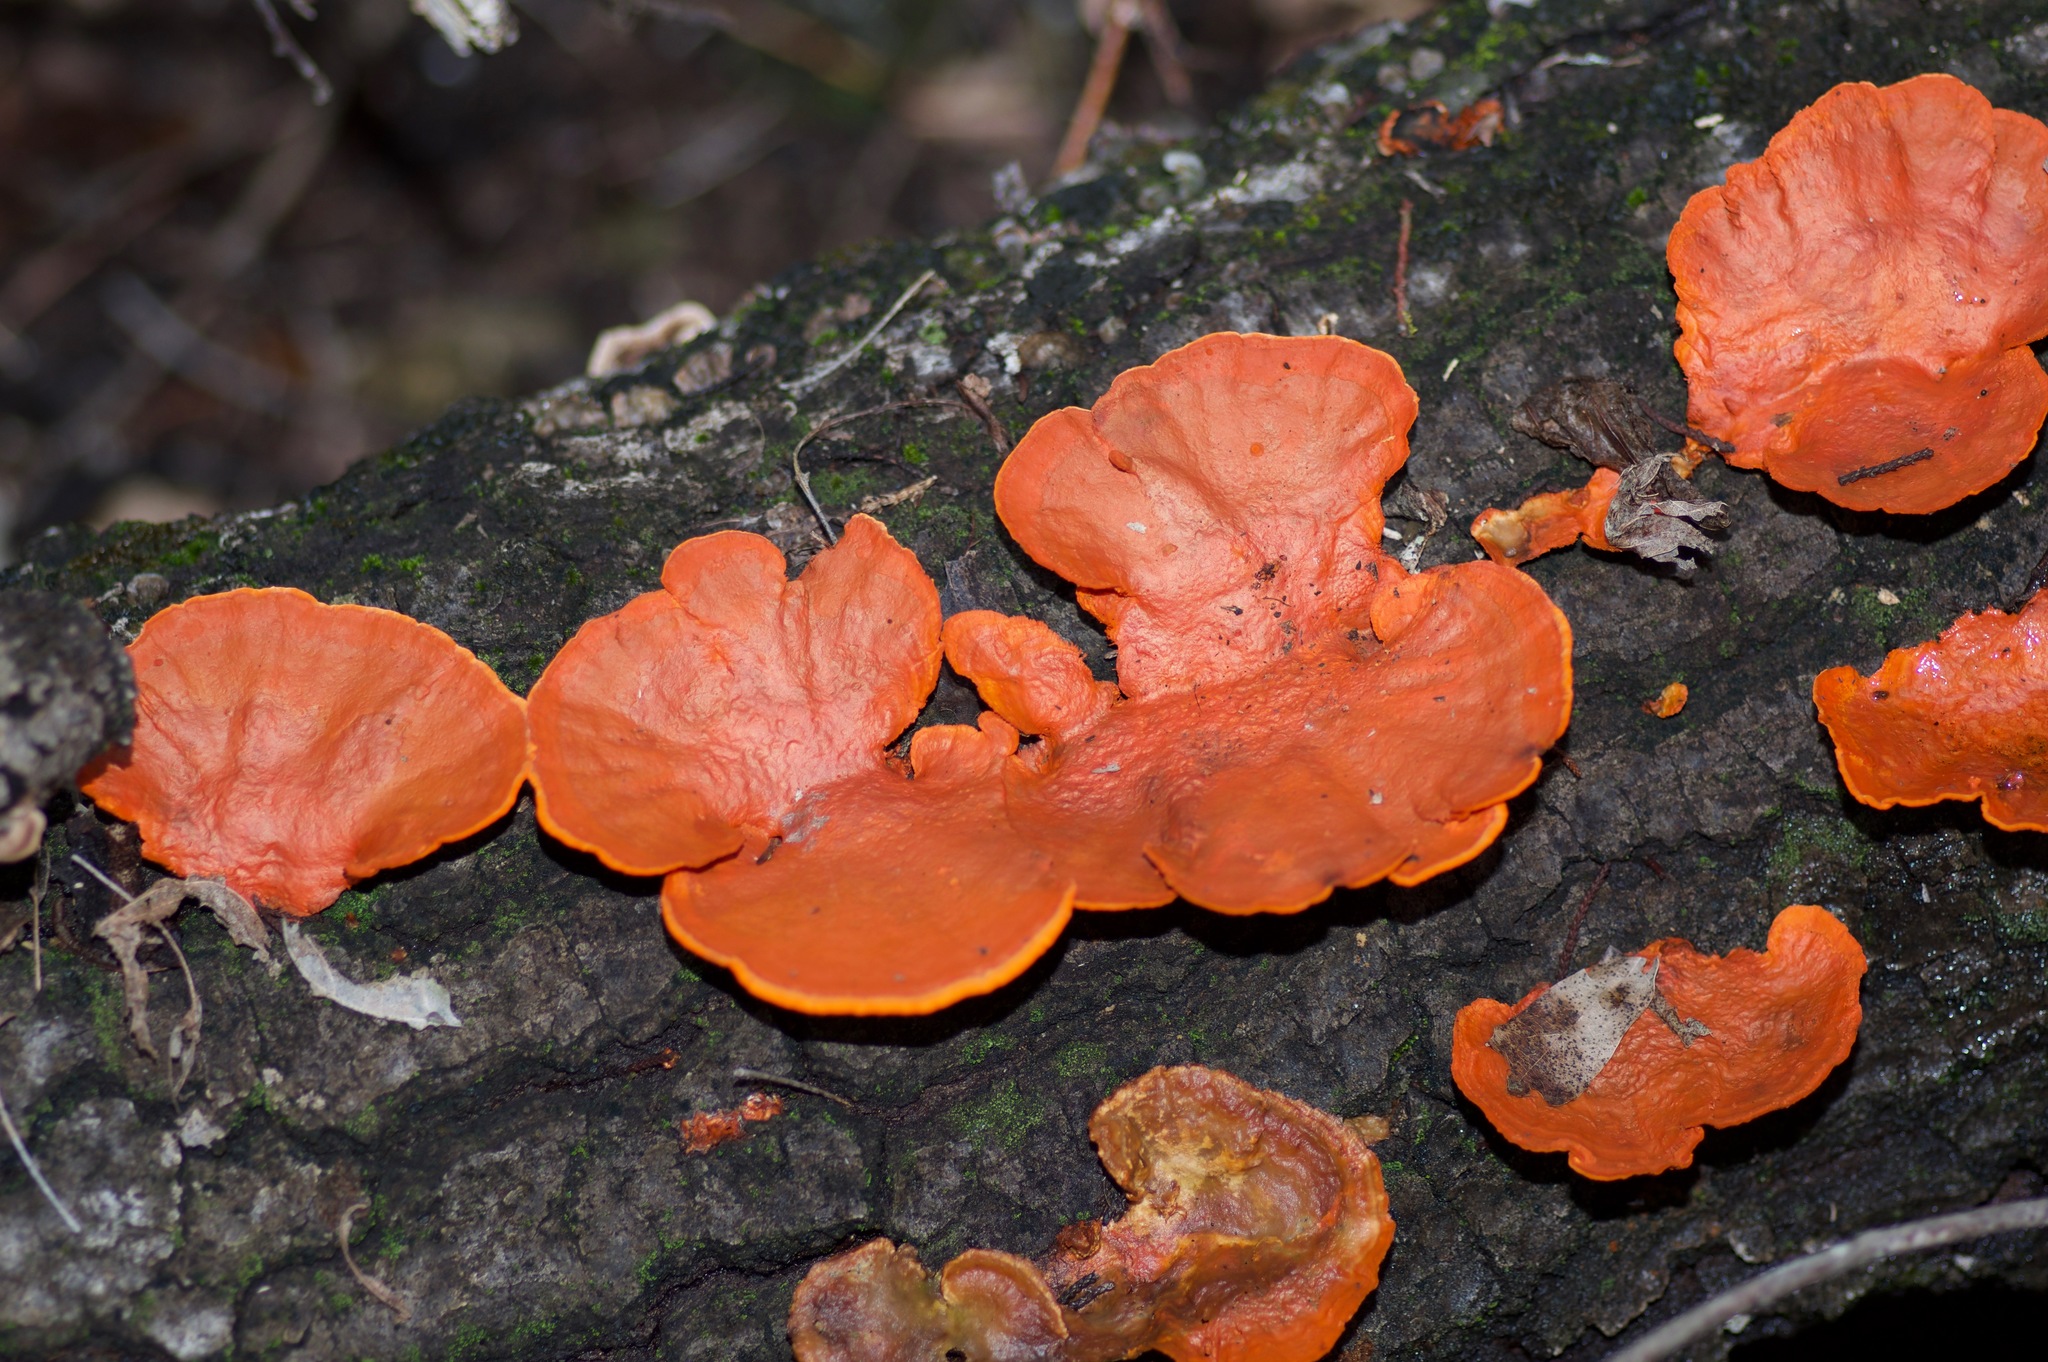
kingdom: Fungi
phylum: Basidiomycota
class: Agaricomycetes
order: Polyporales
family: Polyporaceae
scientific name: Polyporaceae
